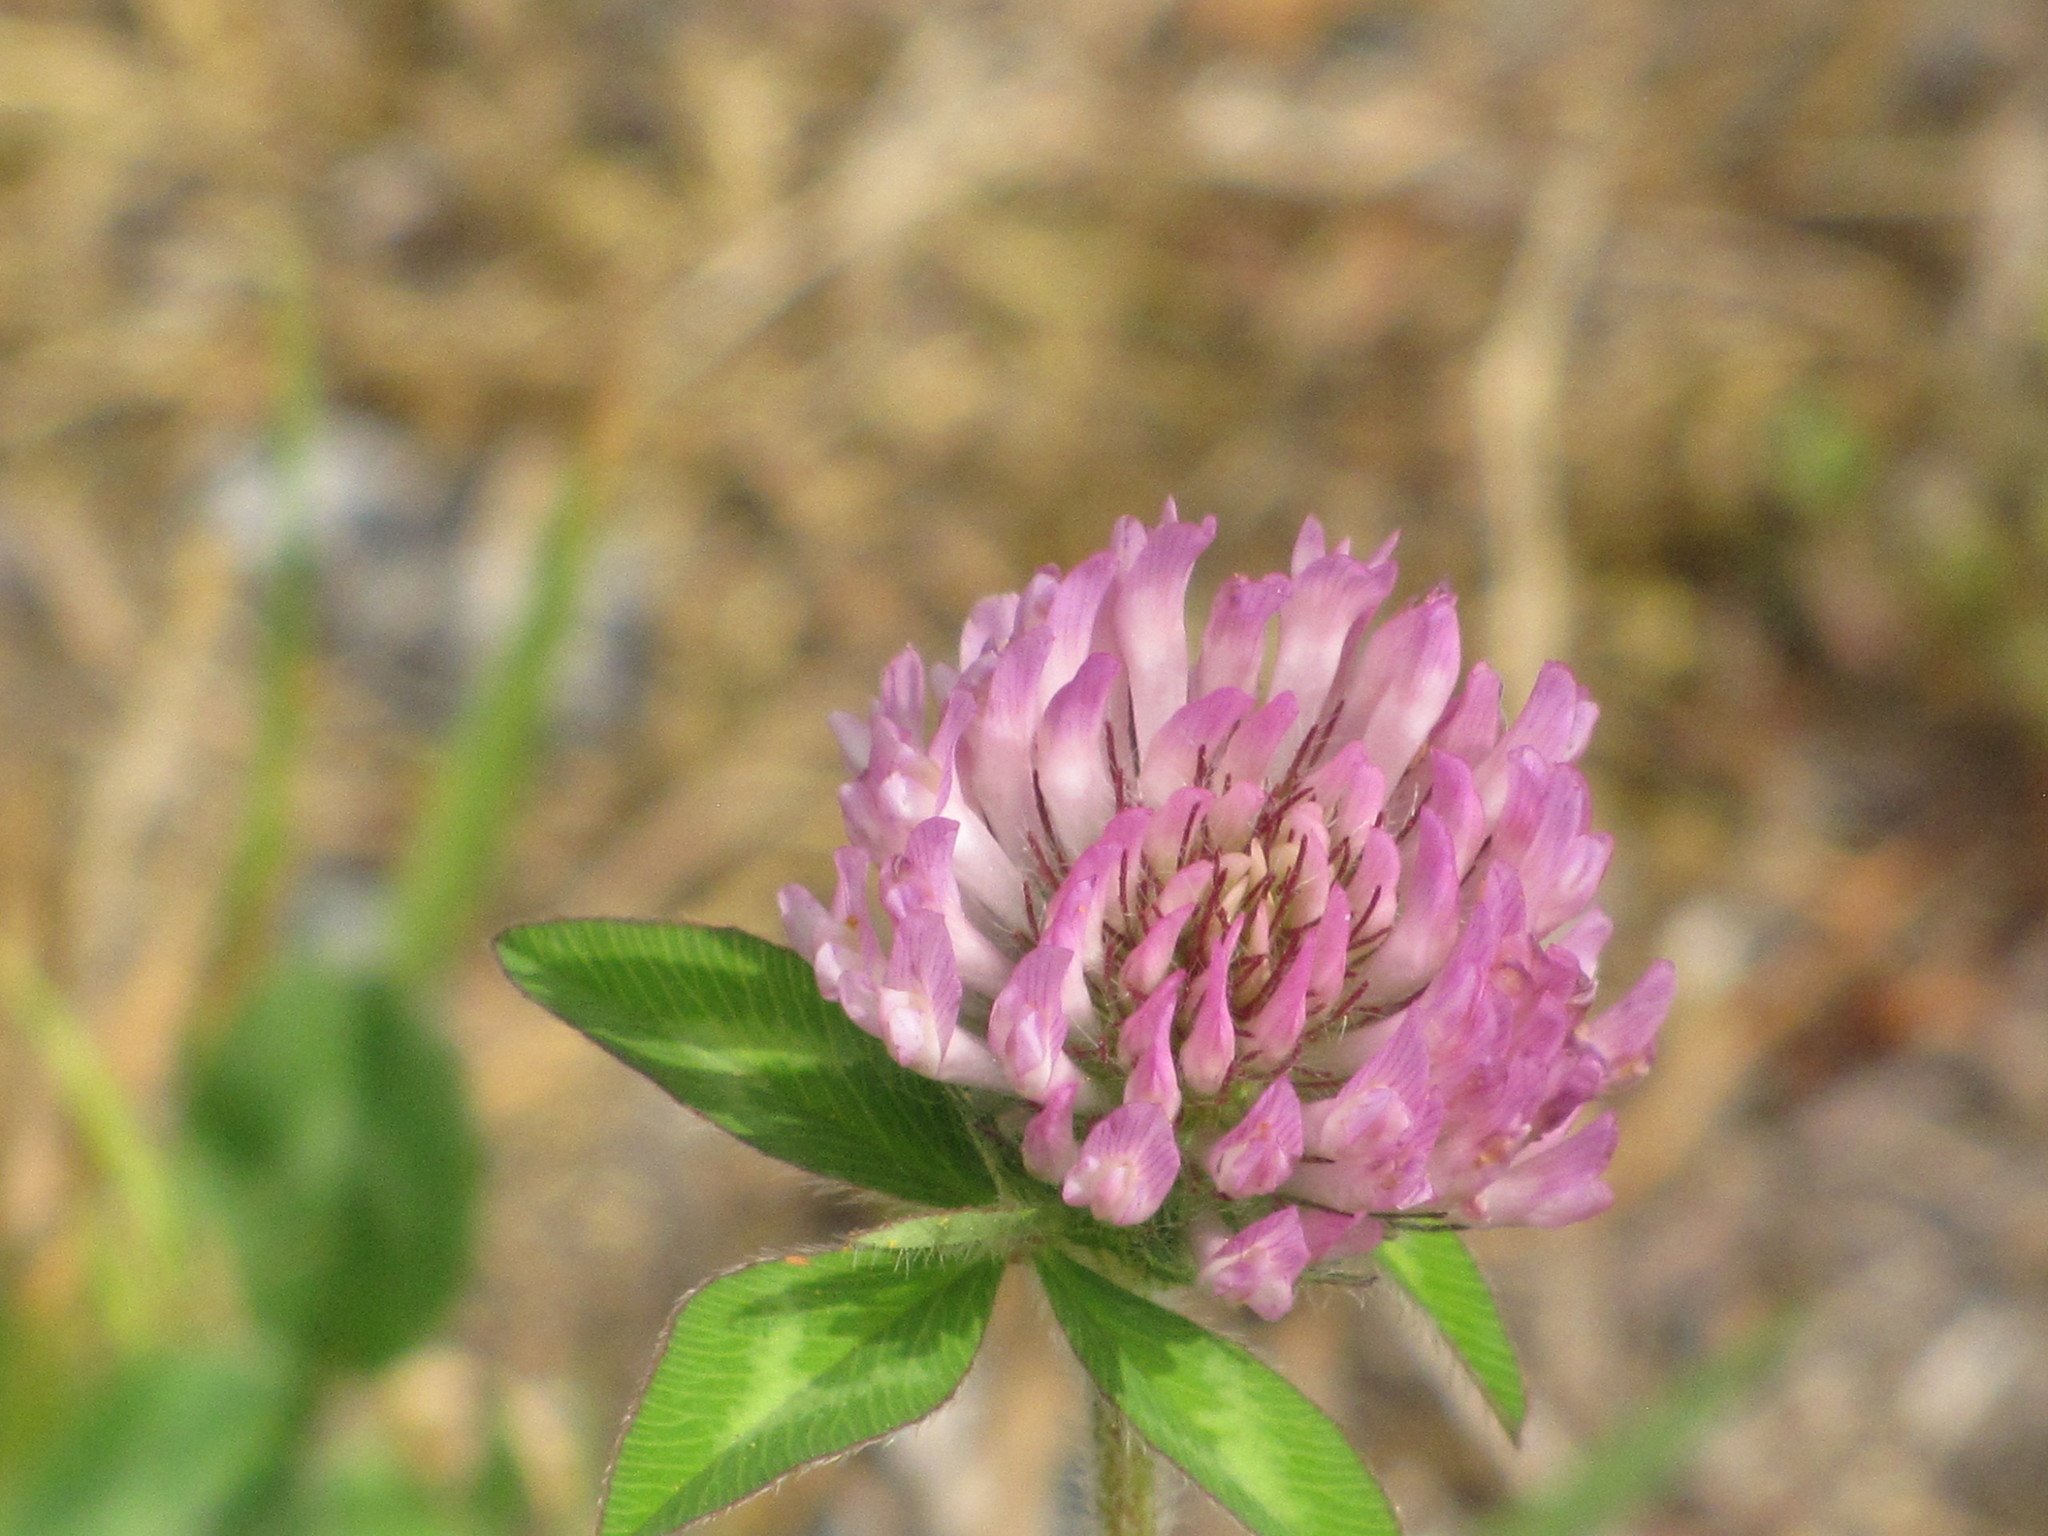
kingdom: Plantae
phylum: Tracheophyta
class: Magnoliopsida
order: Fabales
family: Fabaceae
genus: Trifolium
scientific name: Trifolium pratense
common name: Red clover
